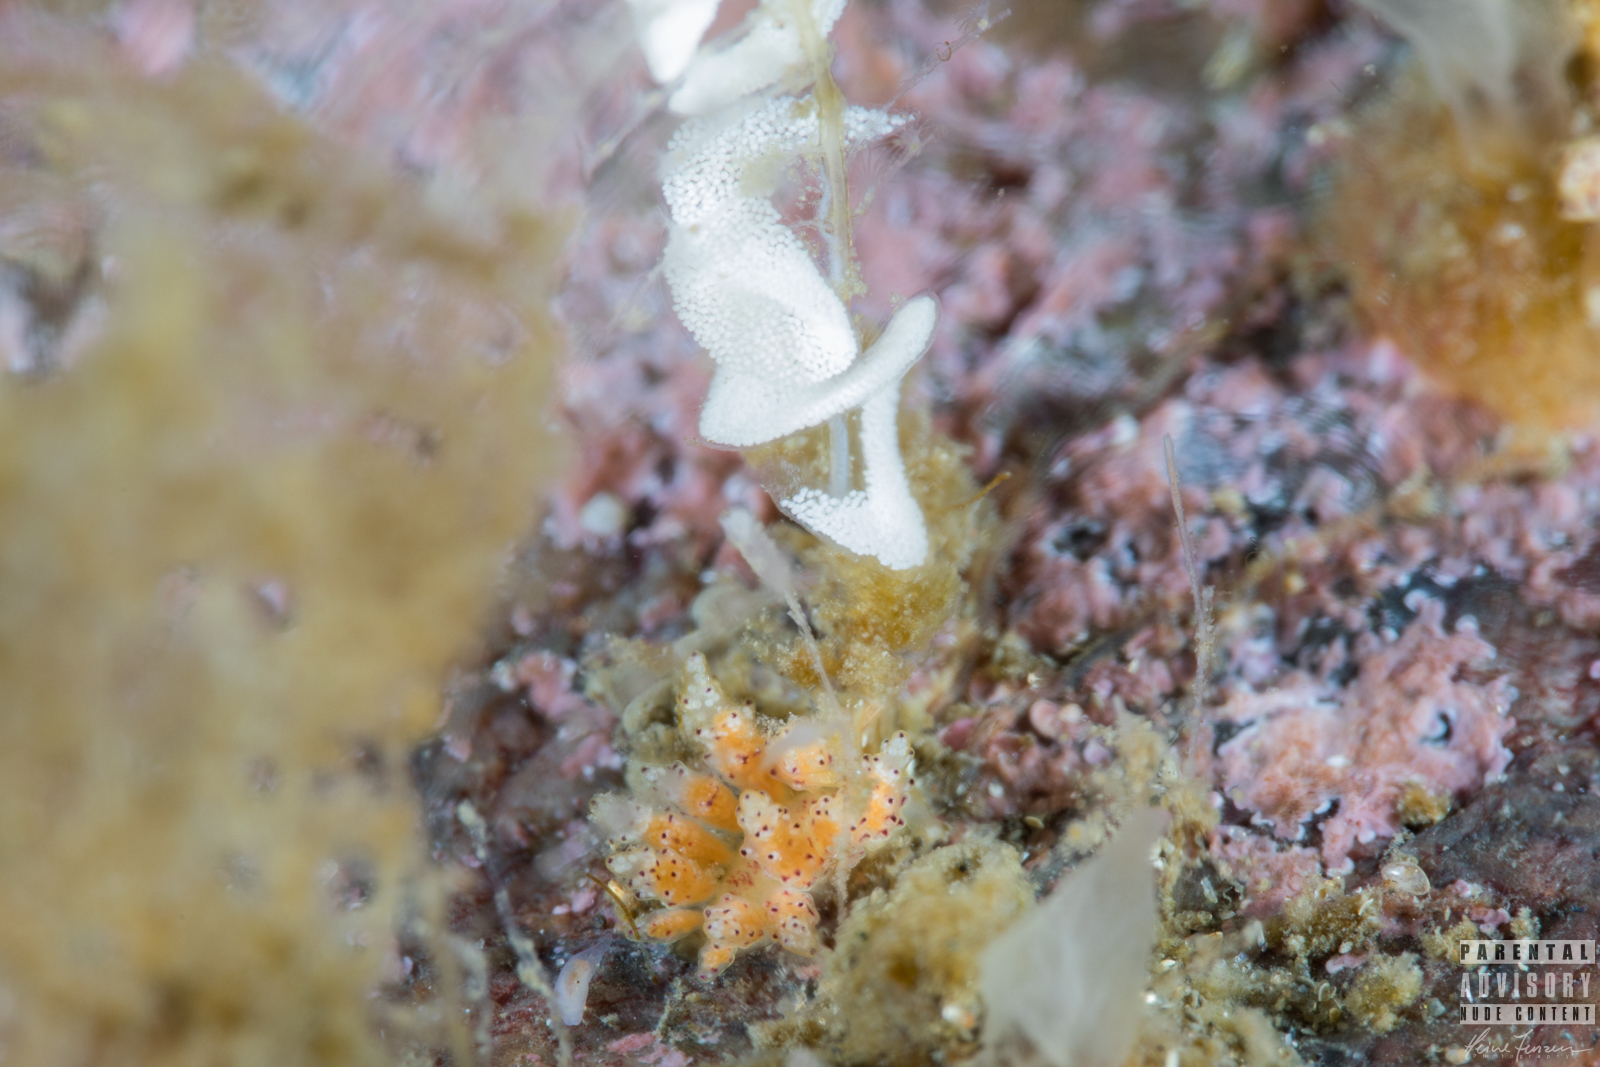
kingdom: Animalia
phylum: Mollusca
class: Gastropoda
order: Nudibranchia
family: Dotidae
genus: Doto
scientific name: Doto dunnei
